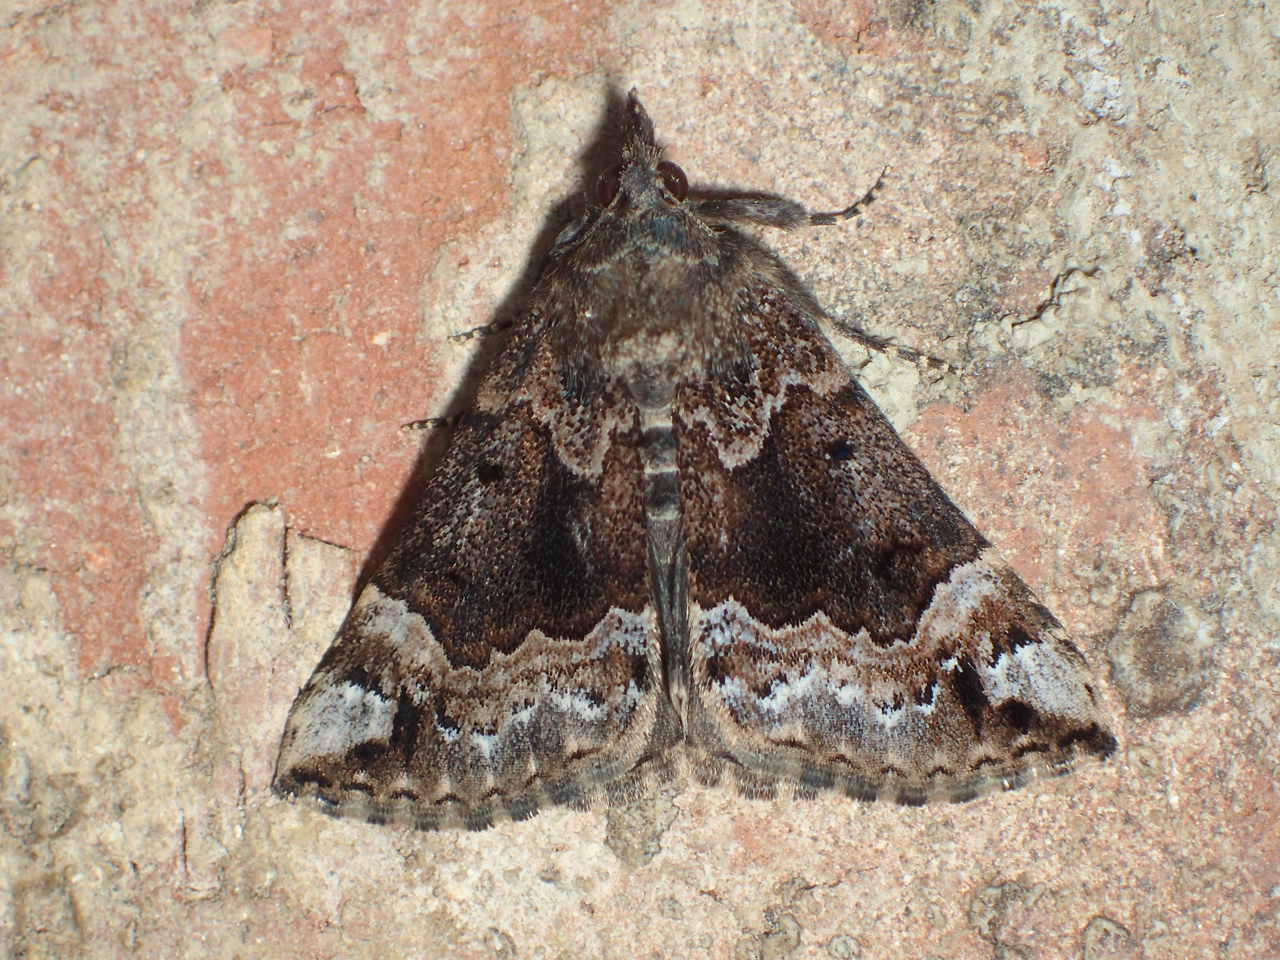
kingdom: Animalia
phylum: Arthropoda
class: Insecta
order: Lepidoptera
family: Erebidae
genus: Hypena
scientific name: Hypena palparia
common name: Mottled bomolocha moth
